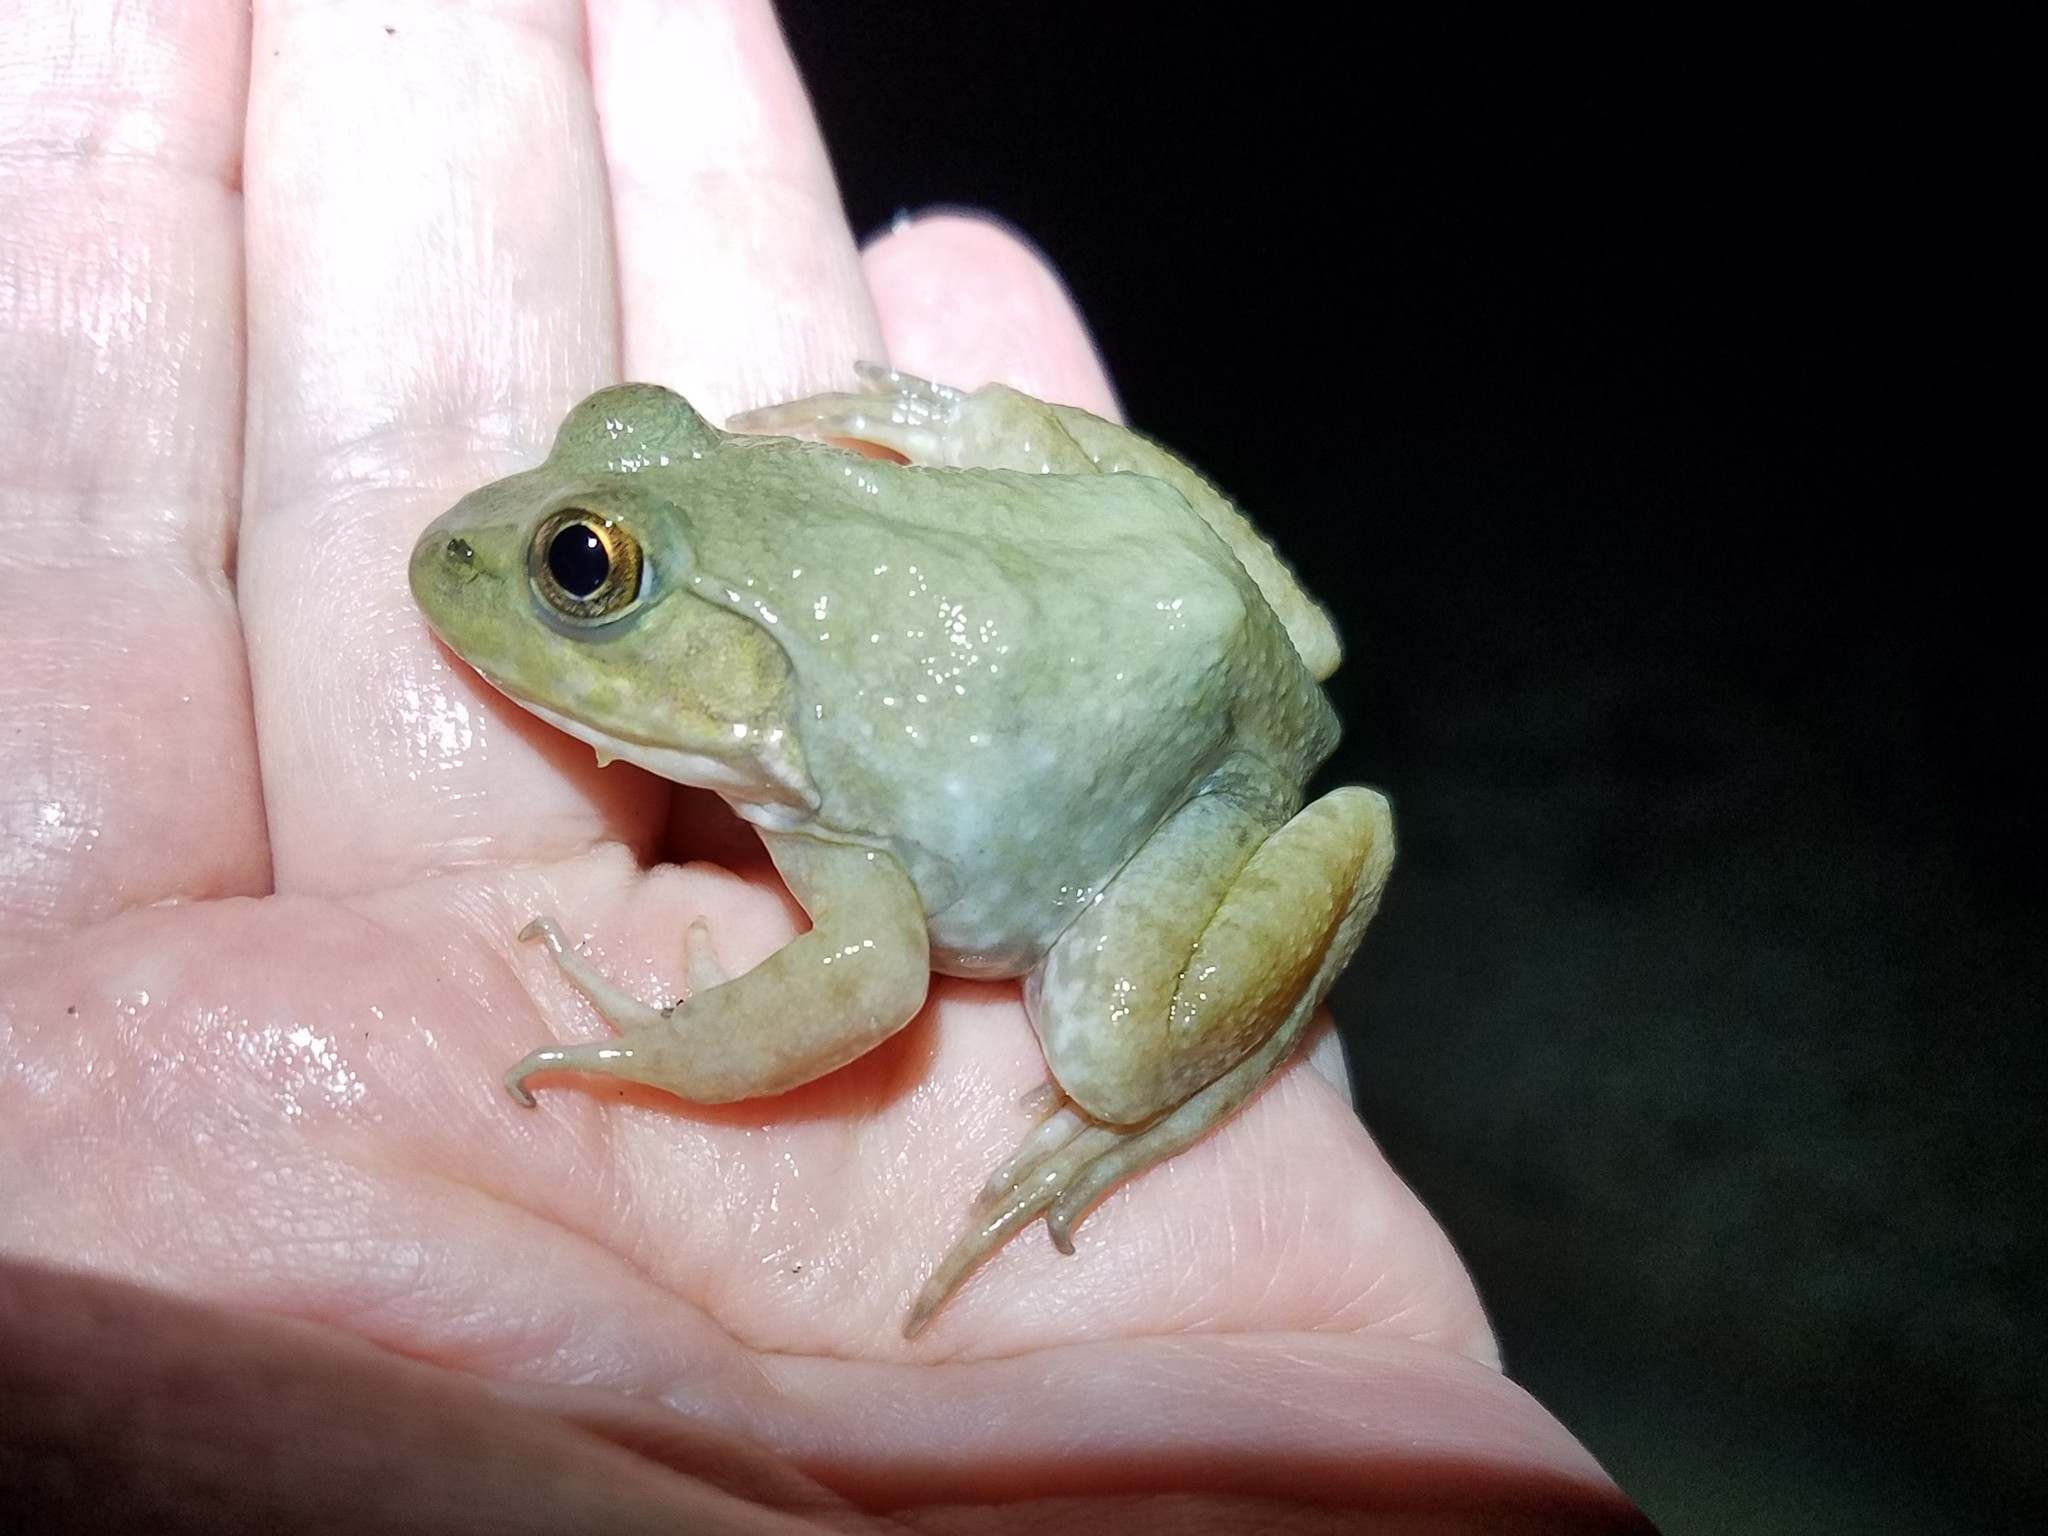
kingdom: Animalia
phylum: Chordata
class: Amphibia
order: Anura
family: Ranidae
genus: Lithobates
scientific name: Lithobates catesbeianus
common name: American bullfrog
